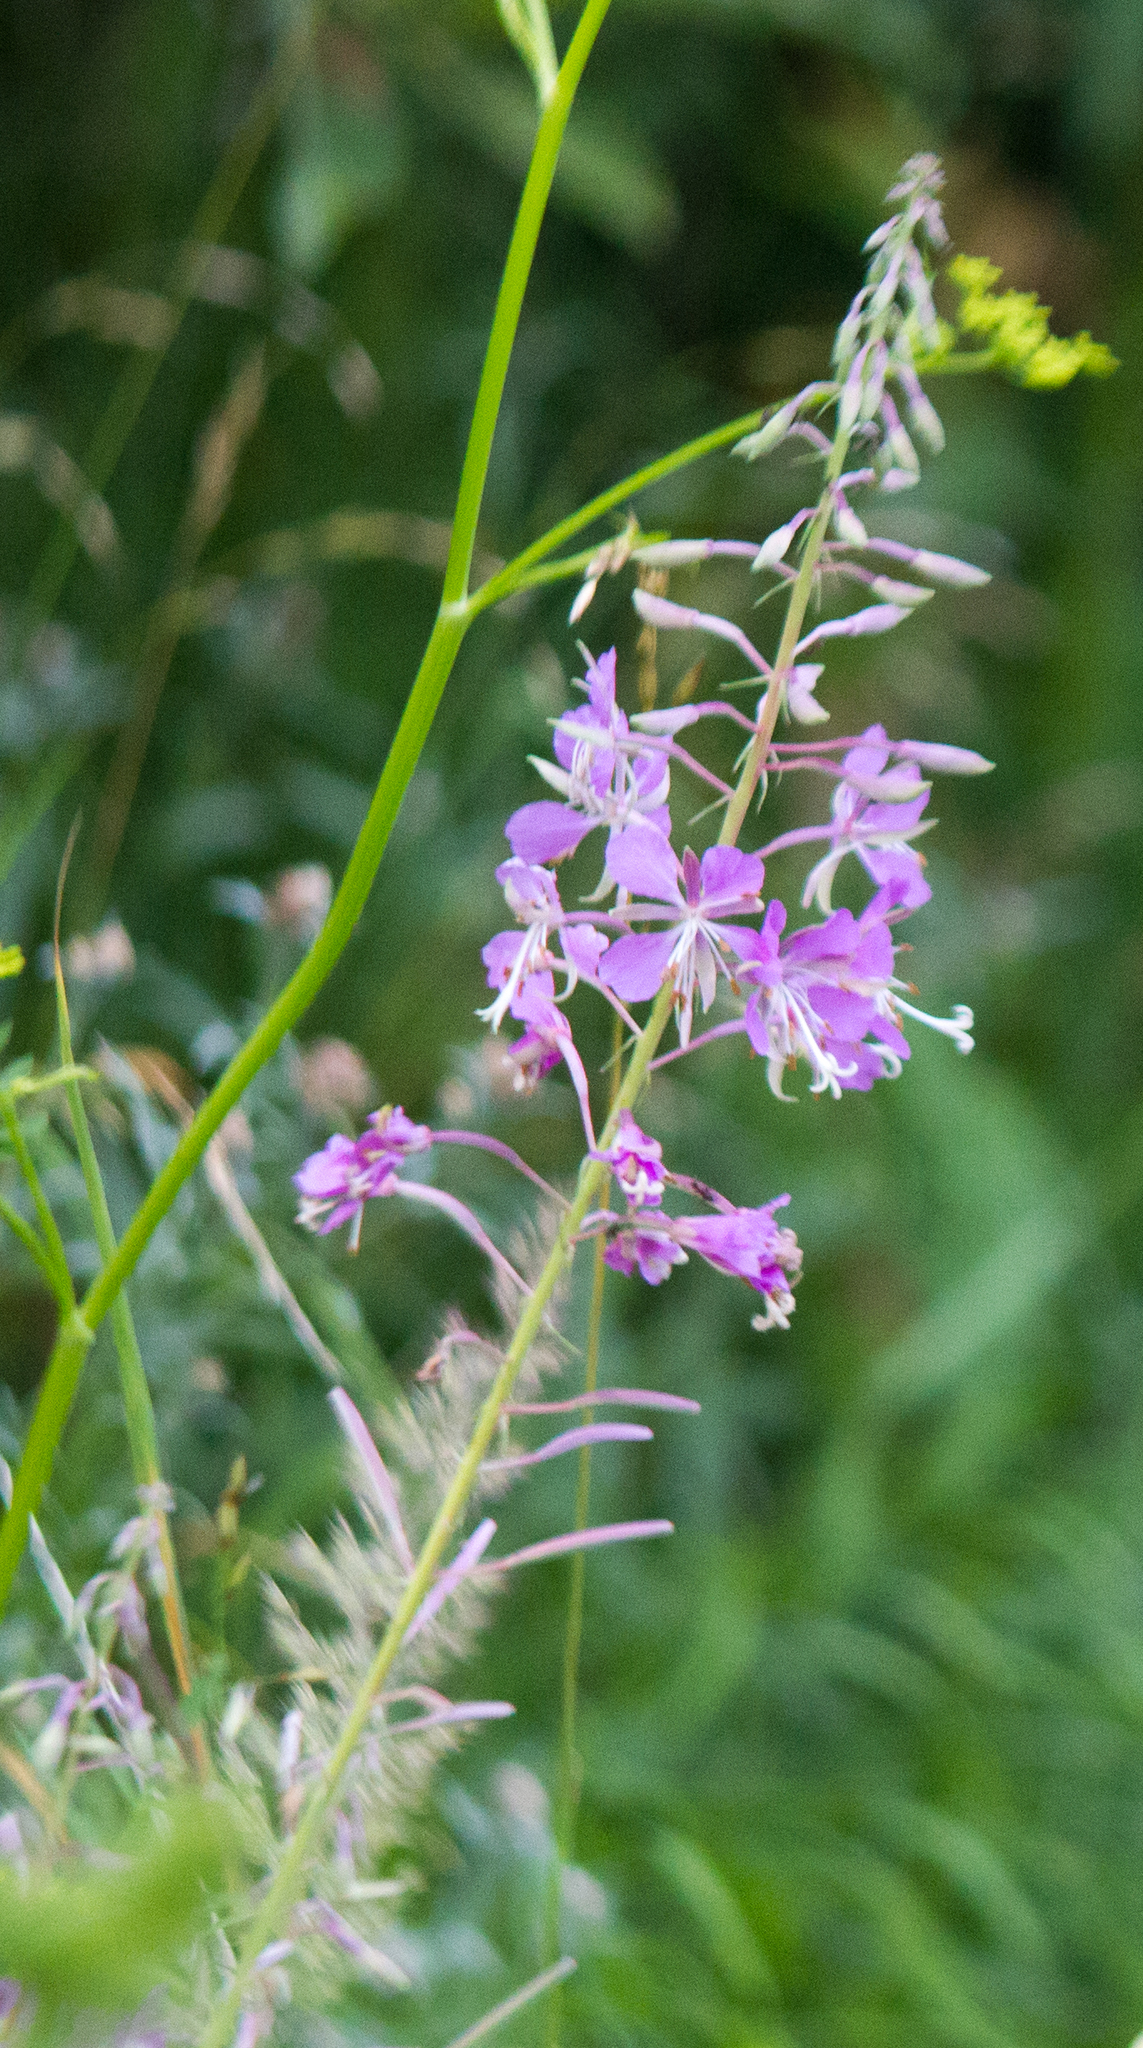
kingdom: Plantae
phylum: Tracheophyta
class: Magnoliopsida
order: Myrtales
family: Onagraceae
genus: Chamaenerion
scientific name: Chamaenerion angustifolium
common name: Fireweed
